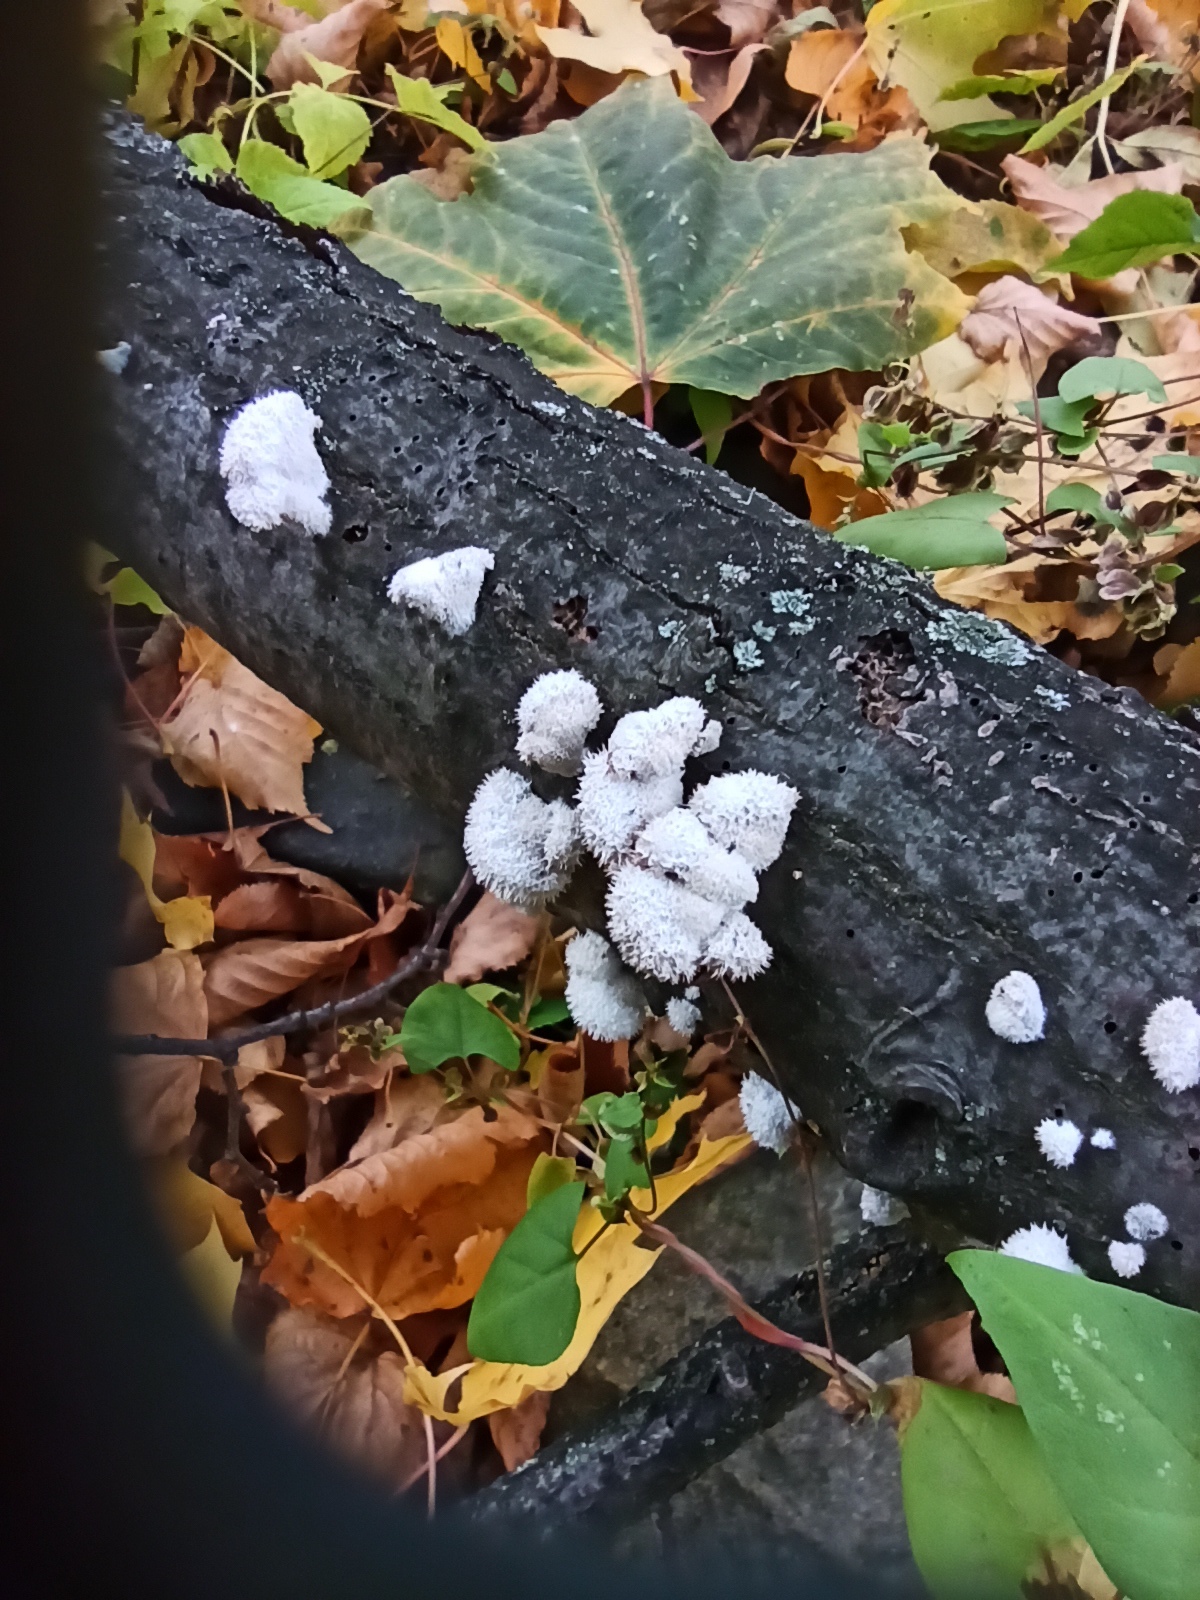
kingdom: Fungi
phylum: Basidiomycota
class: Agaricomycetes
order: Agaricales
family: Schizophyllaceae
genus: Schizophyllum
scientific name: Schizophyllum commune
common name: Common porecrust
